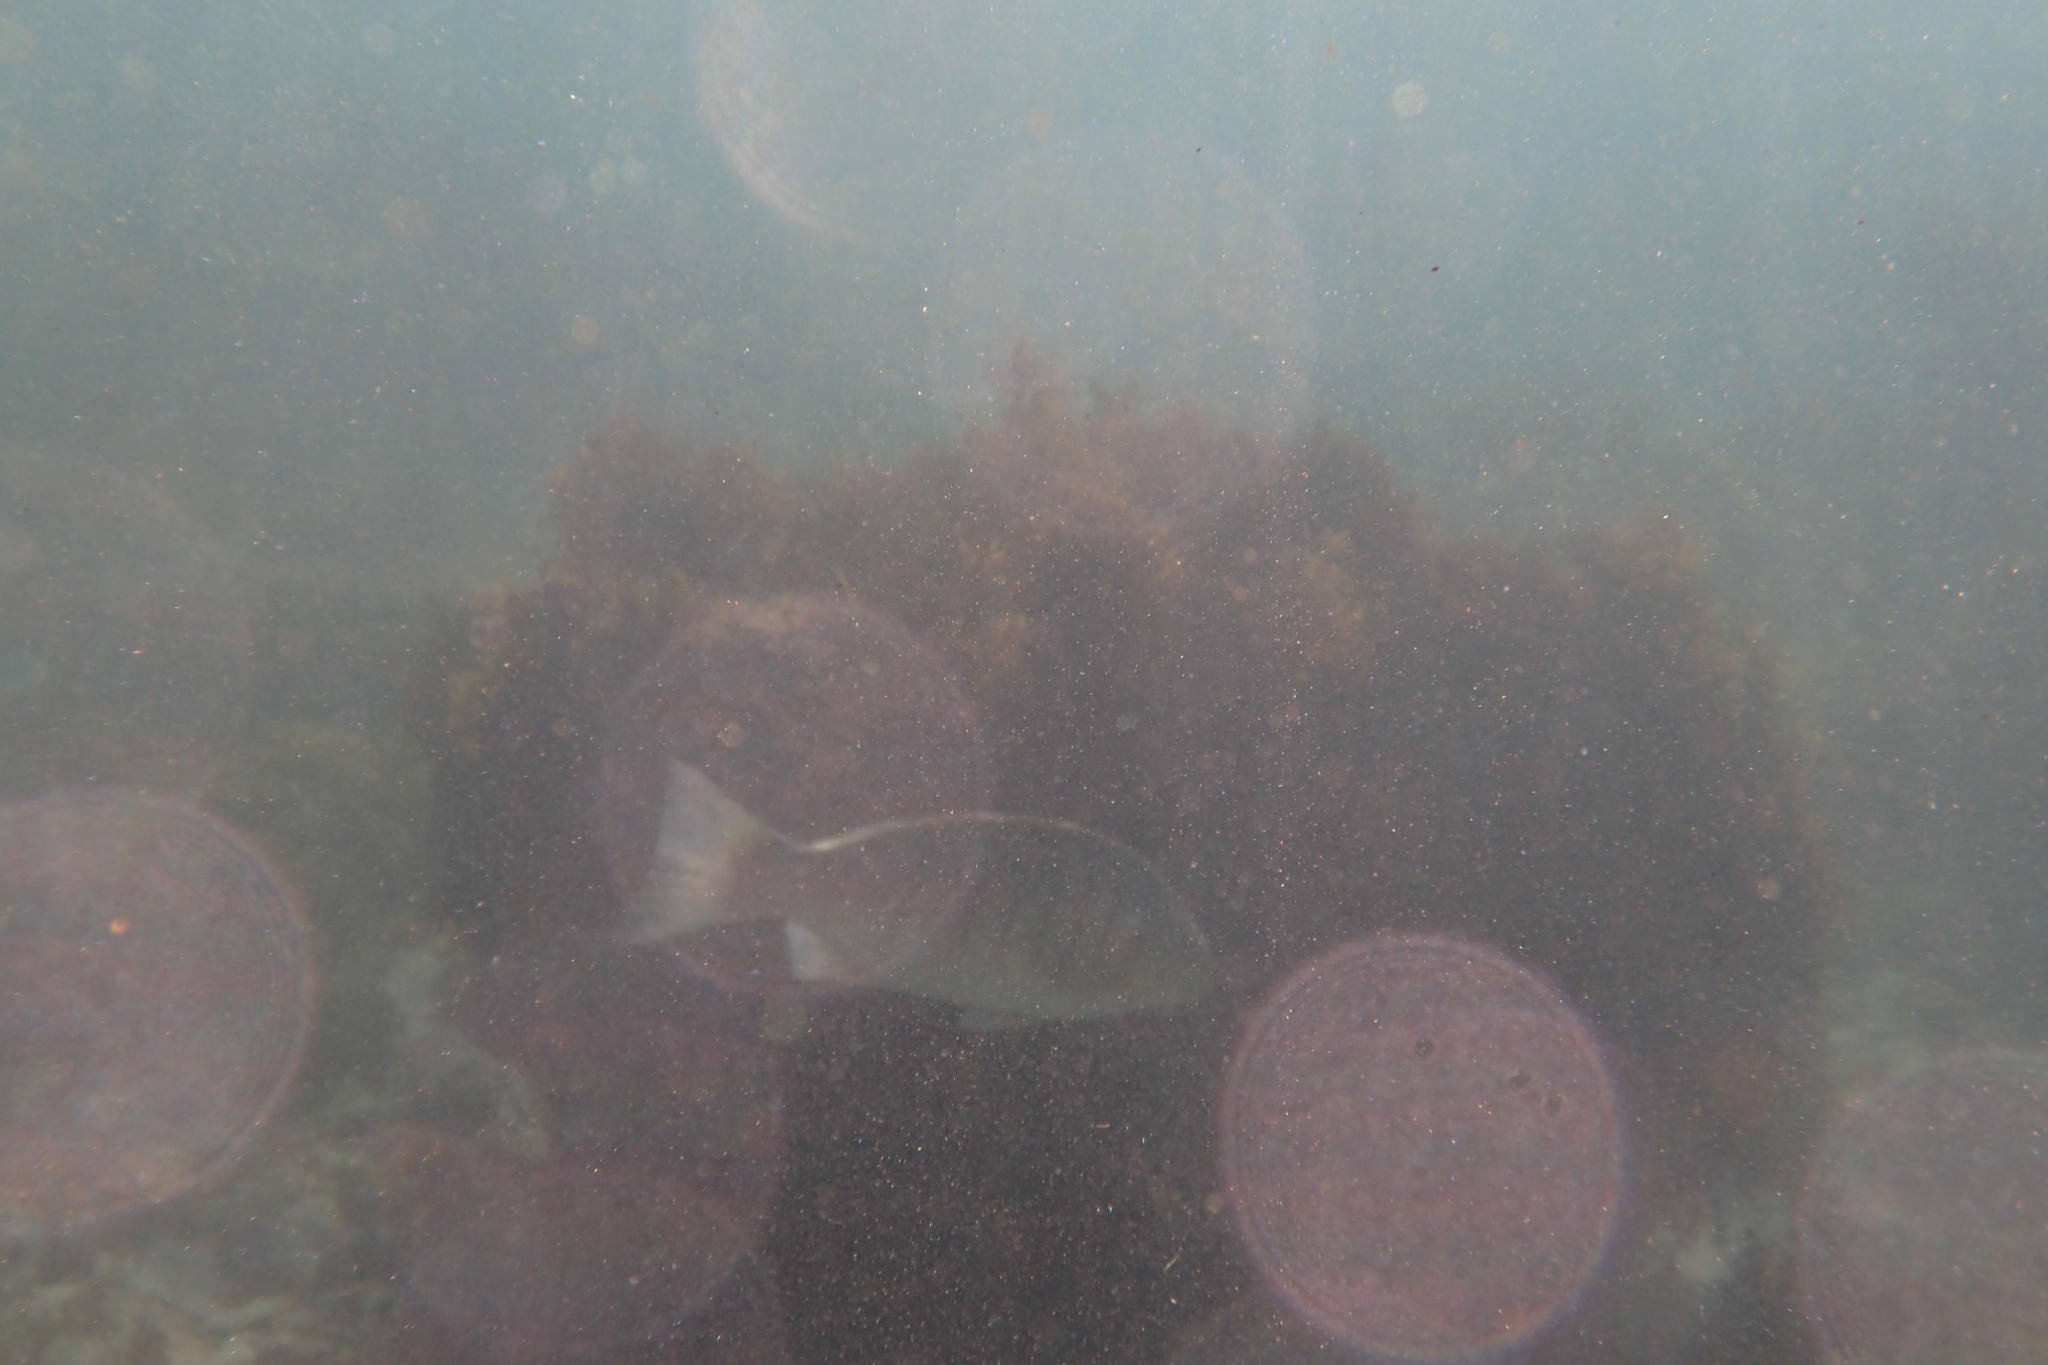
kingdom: Animalia
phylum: Chordata
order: Perciformes
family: Kyphosidae
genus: Girella
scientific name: Girella tricuspidata
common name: Parore
